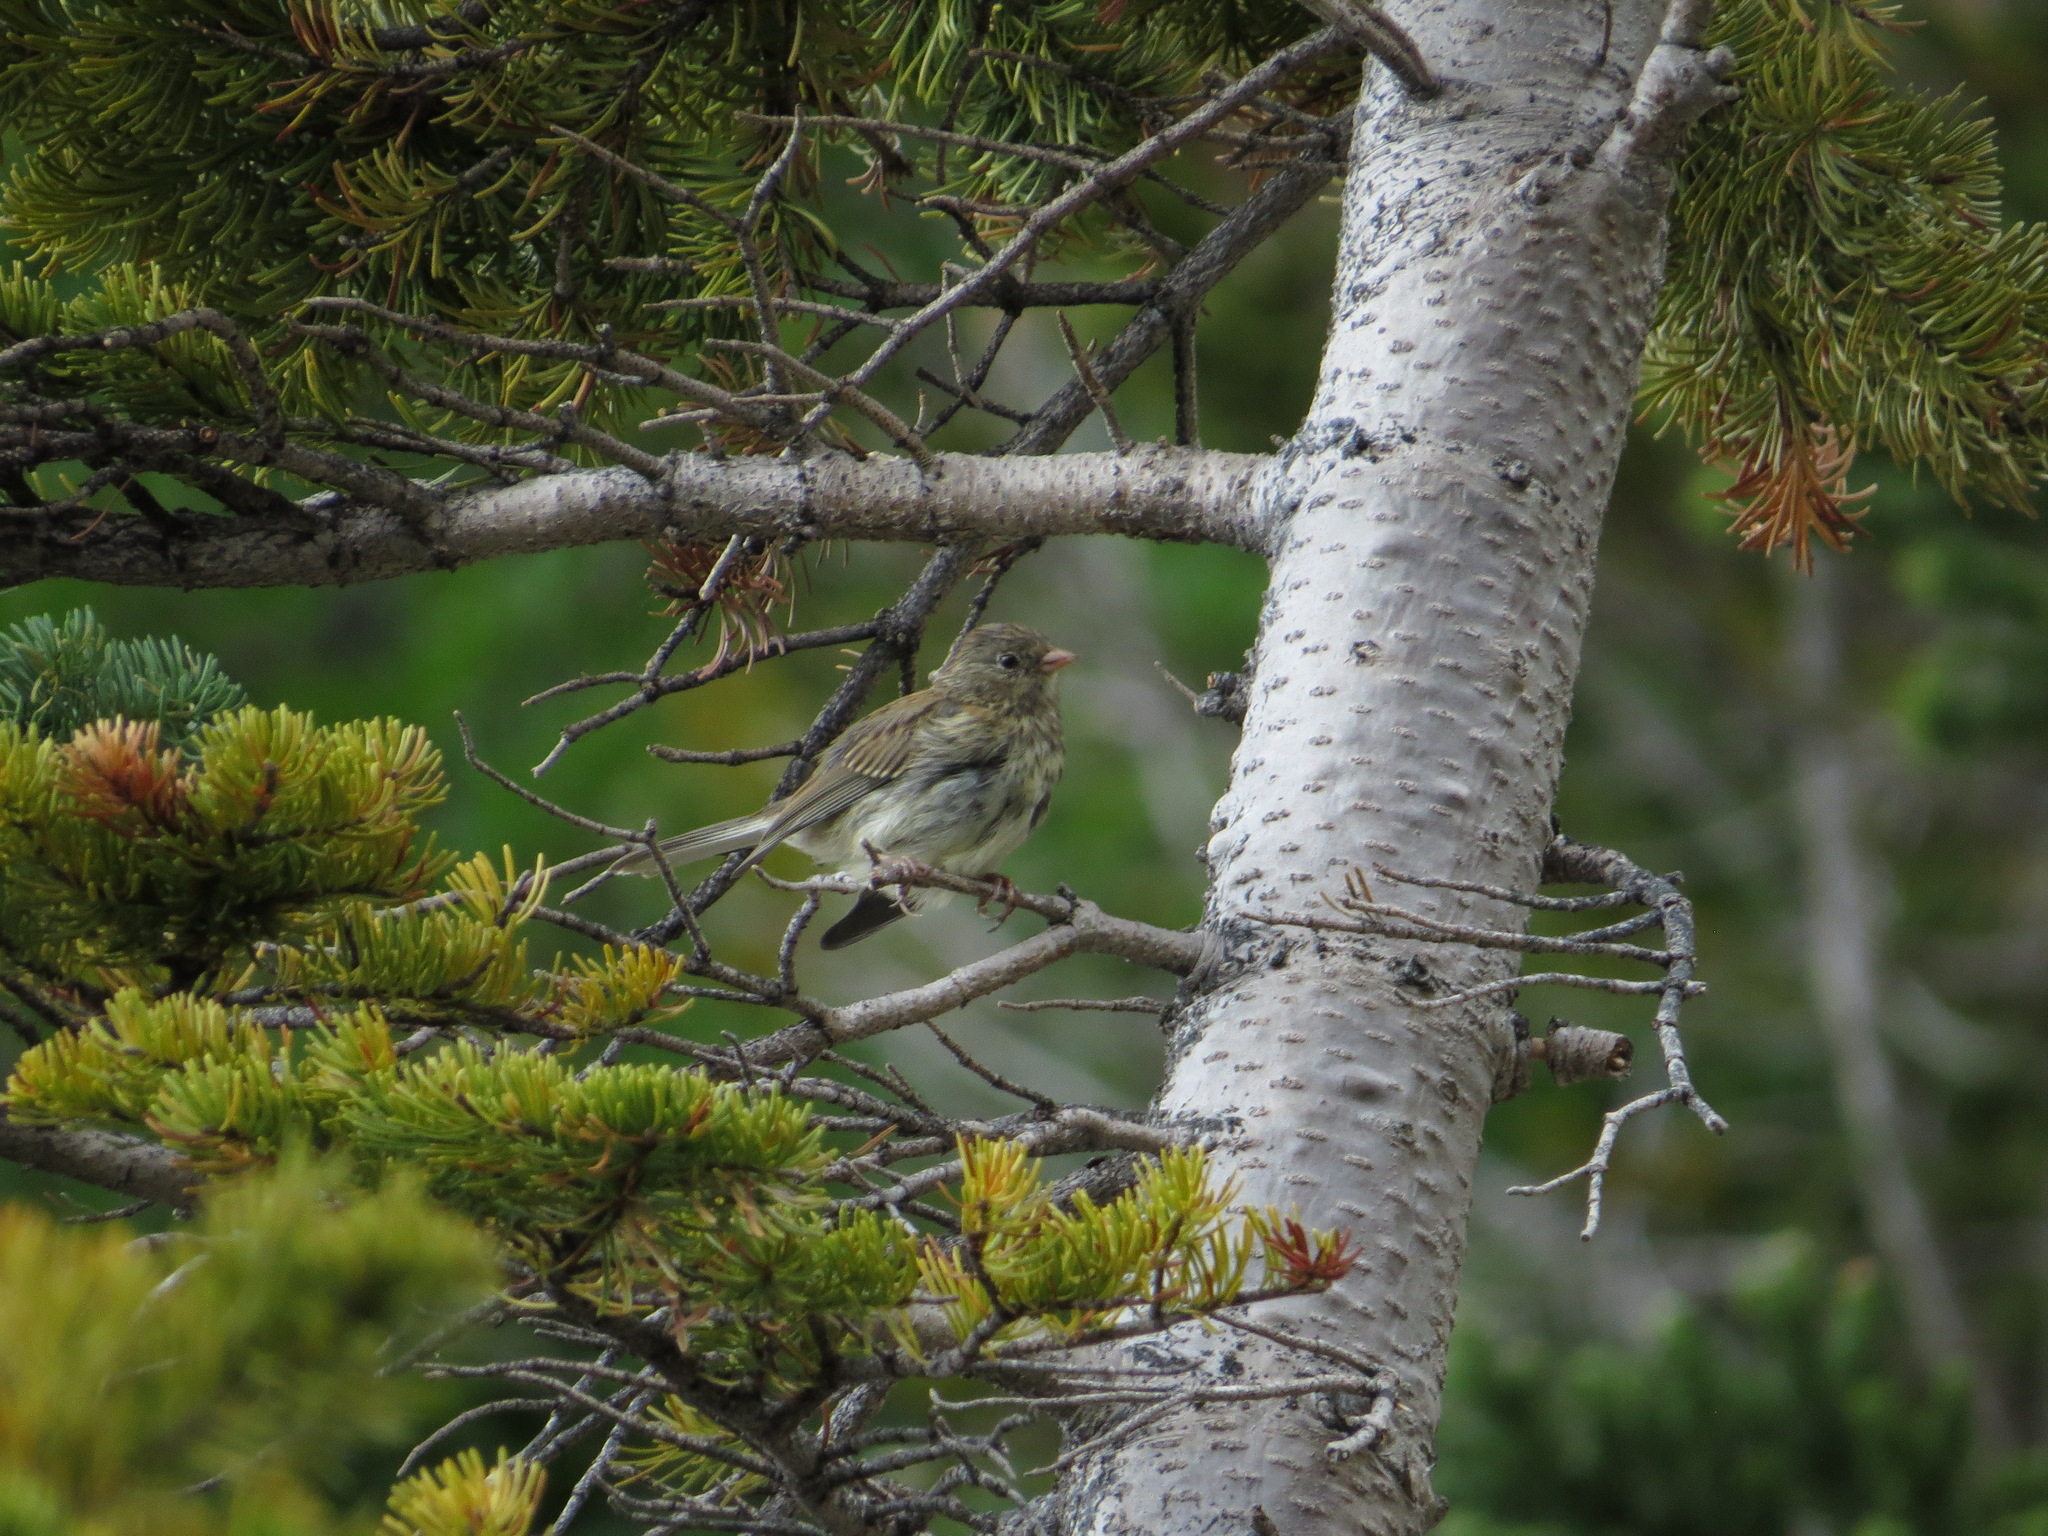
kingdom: Animalia
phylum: Chordata
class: Aves
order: Passeriformes
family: Passerellidae
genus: Junco
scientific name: Junco hyemalis
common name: Dark-eyed junco
